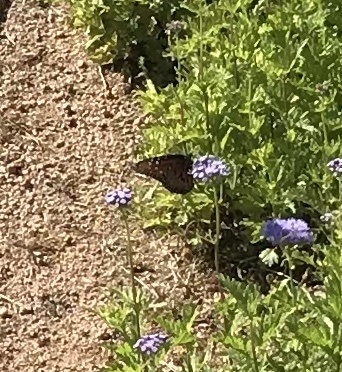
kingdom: Animalia
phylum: Arthropoda
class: Insecta
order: Lepidoptera
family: Nymphalidae
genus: Danaus
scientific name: Danaus gilippus
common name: Queen
